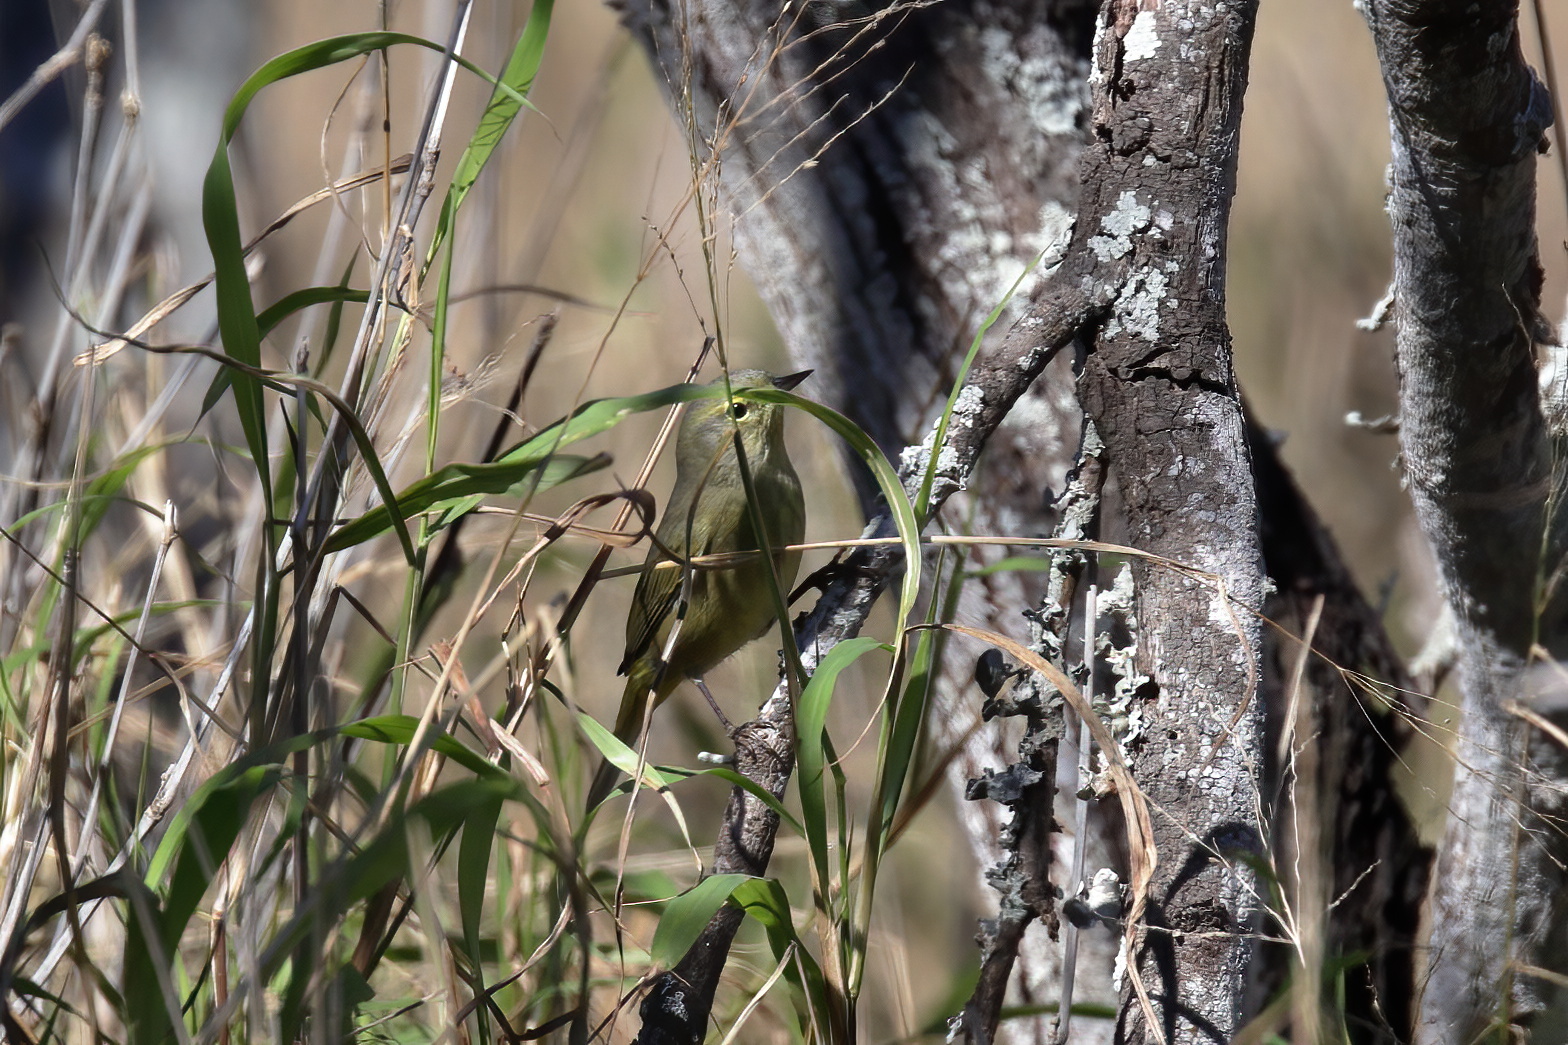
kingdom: Animalia
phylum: Chordata
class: Aves
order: Passeriformes
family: Parulidae
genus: Leiothlypis
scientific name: Leiothlypis celata
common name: Orange-crowned warbler
